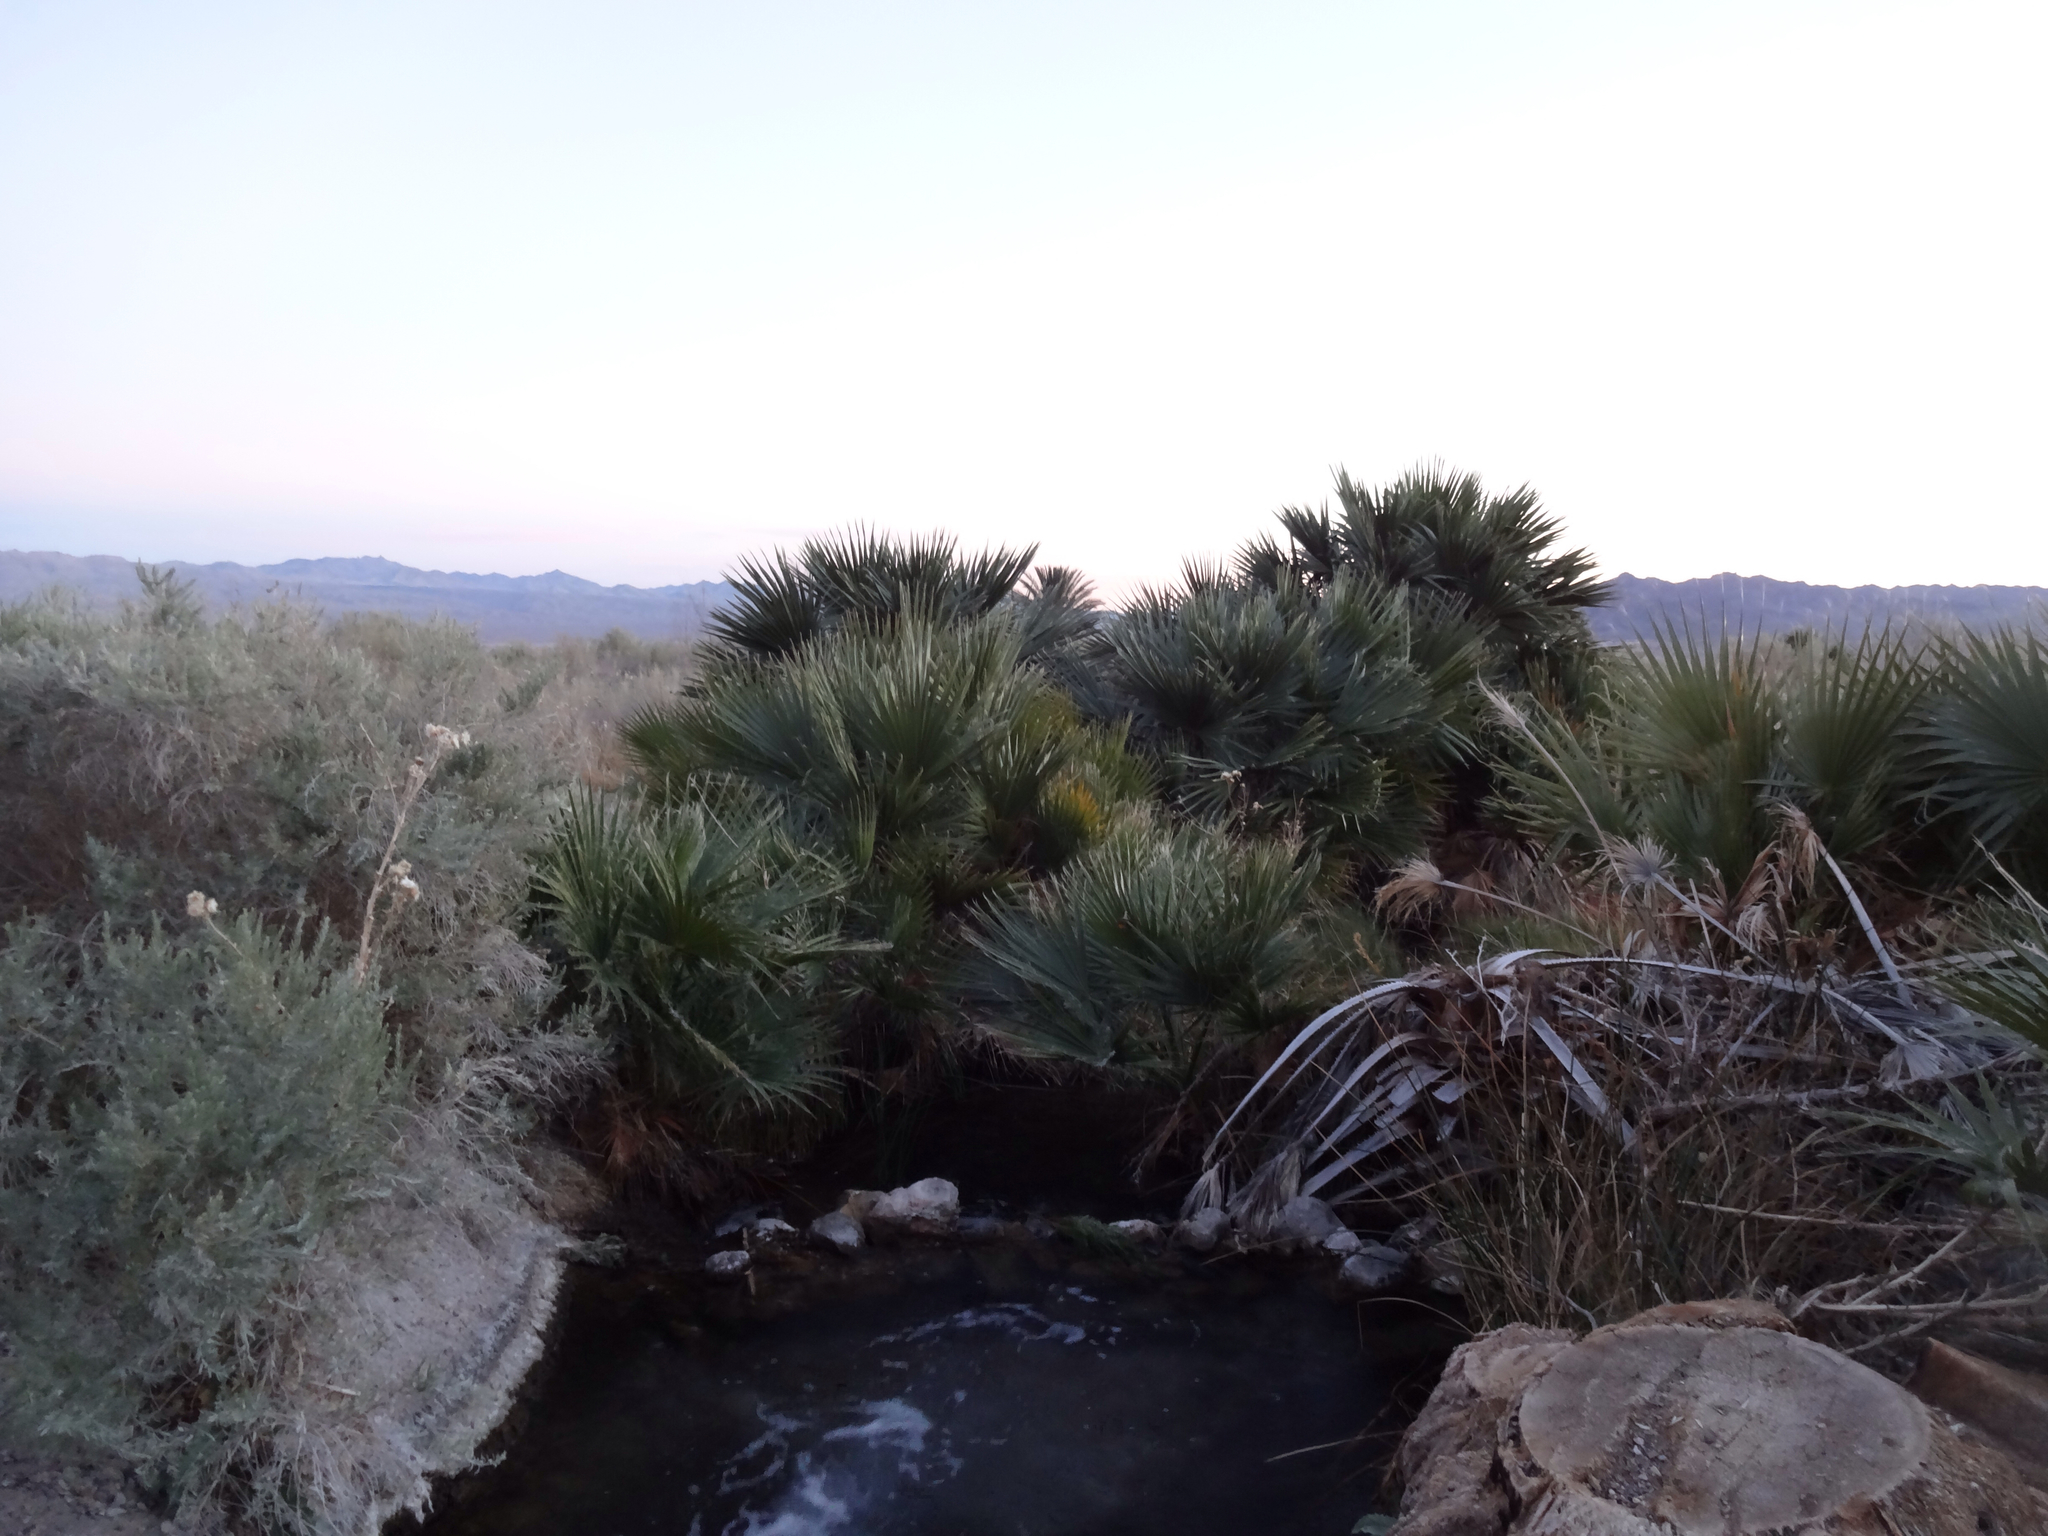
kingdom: Plantae
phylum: Tracheophyta
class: Liliopsida
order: Arecales
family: Arecaceae
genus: Washingtonia
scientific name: Washingtonia filifera
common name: California fan palm
